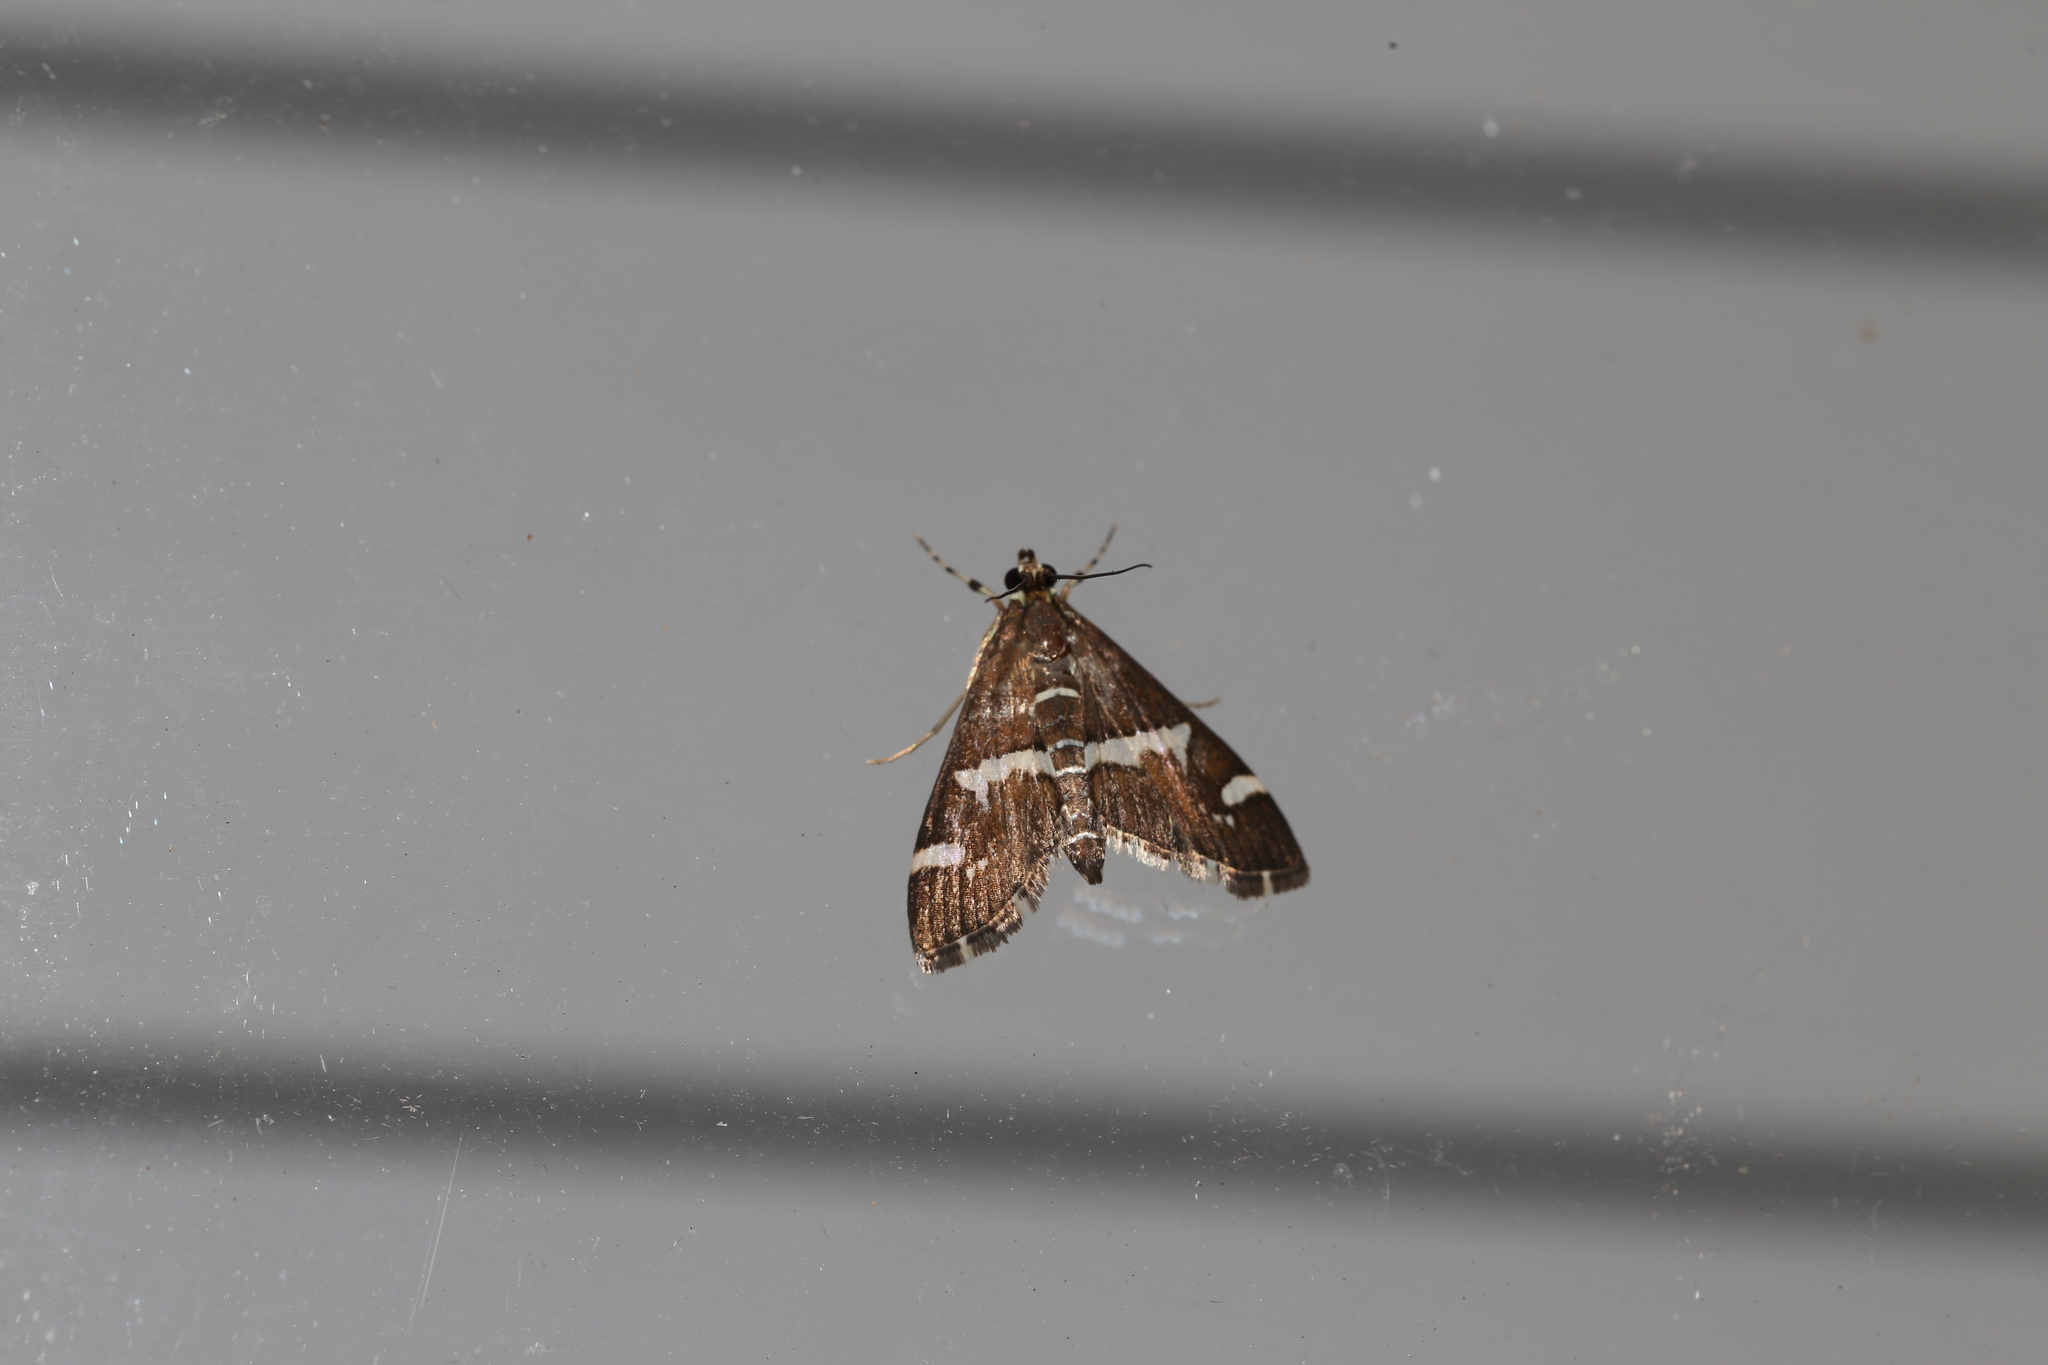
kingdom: Animalia
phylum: Arthropoda
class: Insecta
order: Lepidoptera
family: Crambidae
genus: Spoladea
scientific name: Spoladea recurvalis
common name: Beet webworm moth
